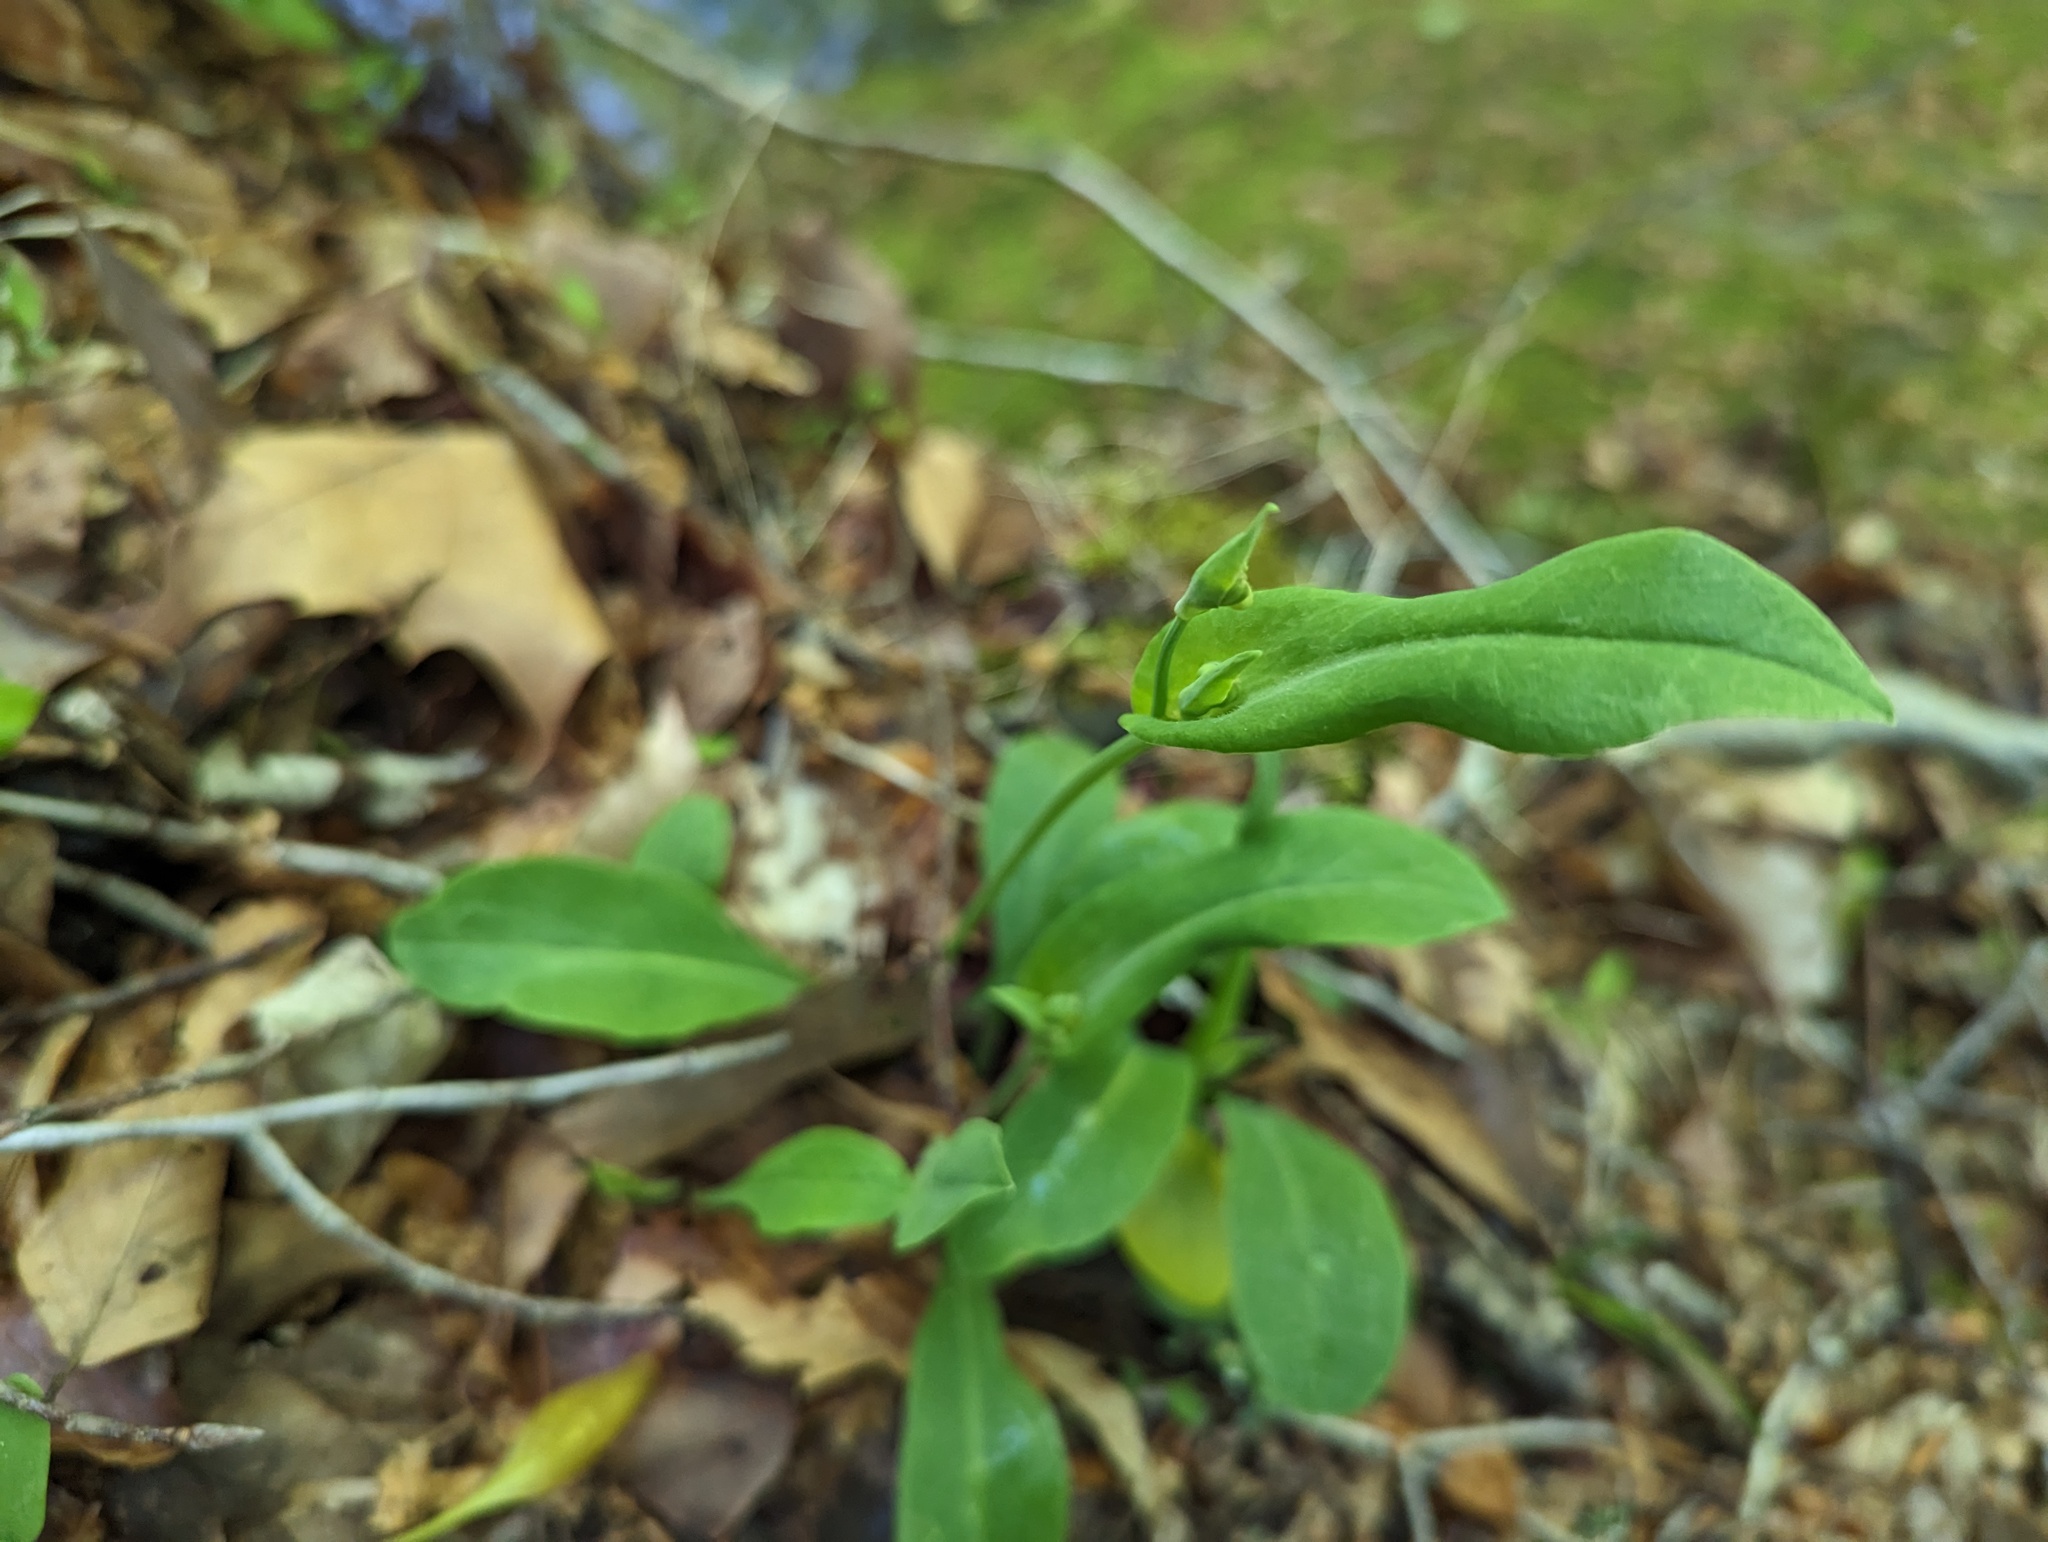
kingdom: Plantae
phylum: Tracheophyta
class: Magnoliopsida
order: Asterales
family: Asteraceae
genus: Krigia
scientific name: Krigia biflora
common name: Orange dwarf-dandelion
